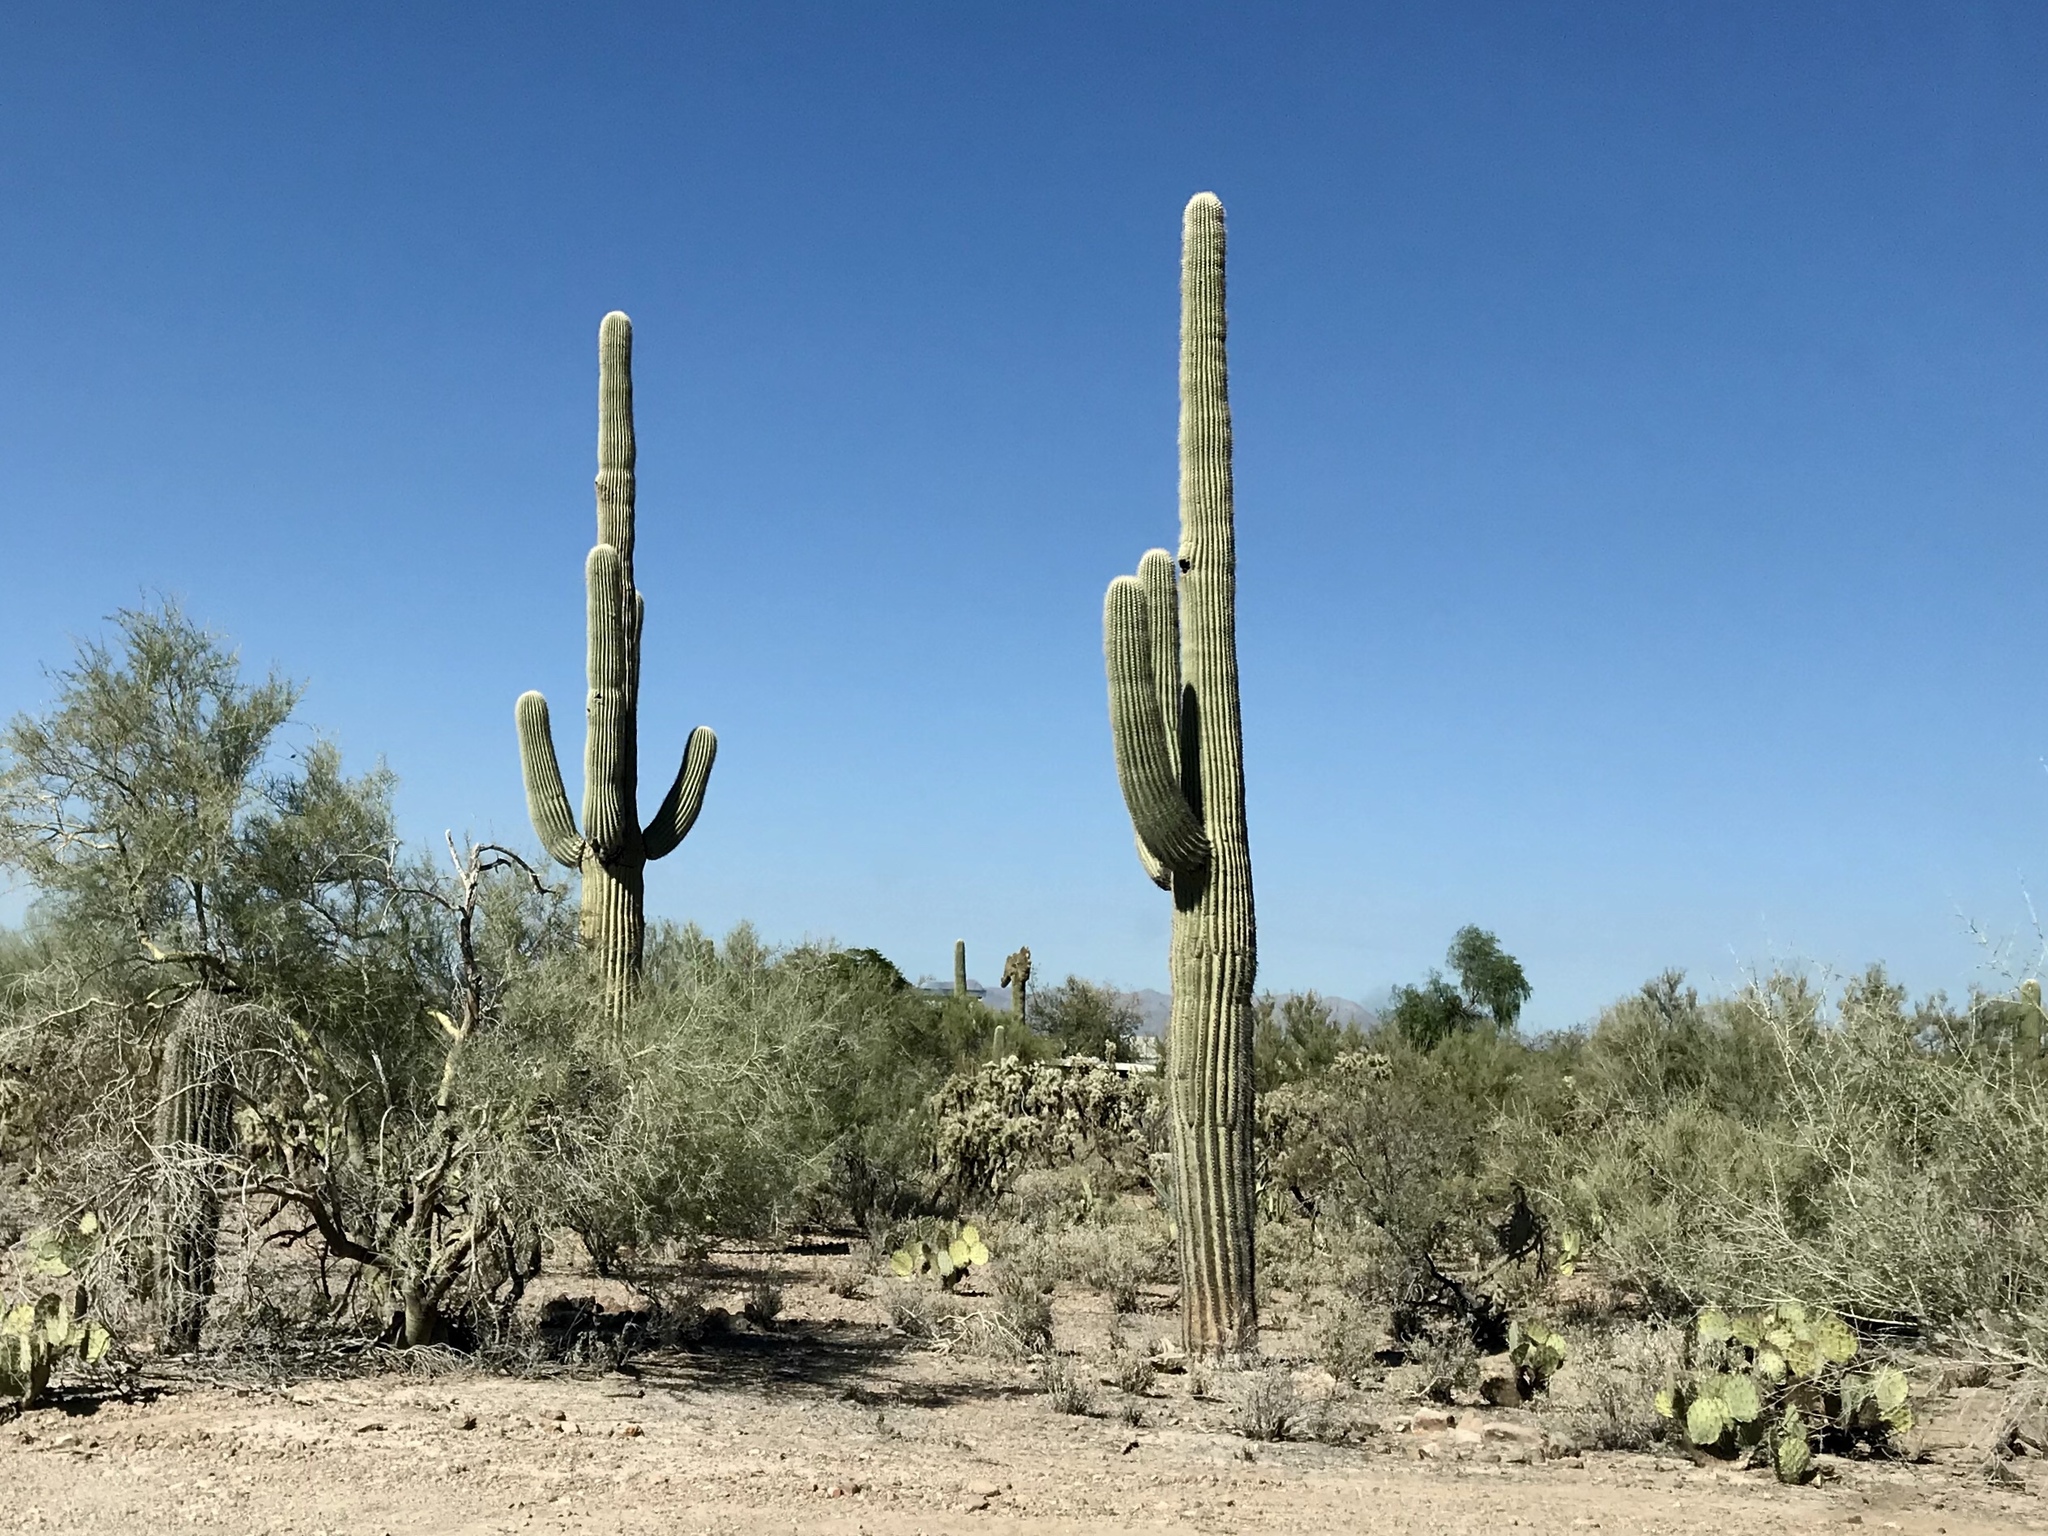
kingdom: Plantae
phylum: Tracheophyta
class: Magnoliopsida
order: Caryophyllales
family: Cactaceae
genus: Carnegiea
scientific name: Carnegiea gigantea
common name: Saguaro
